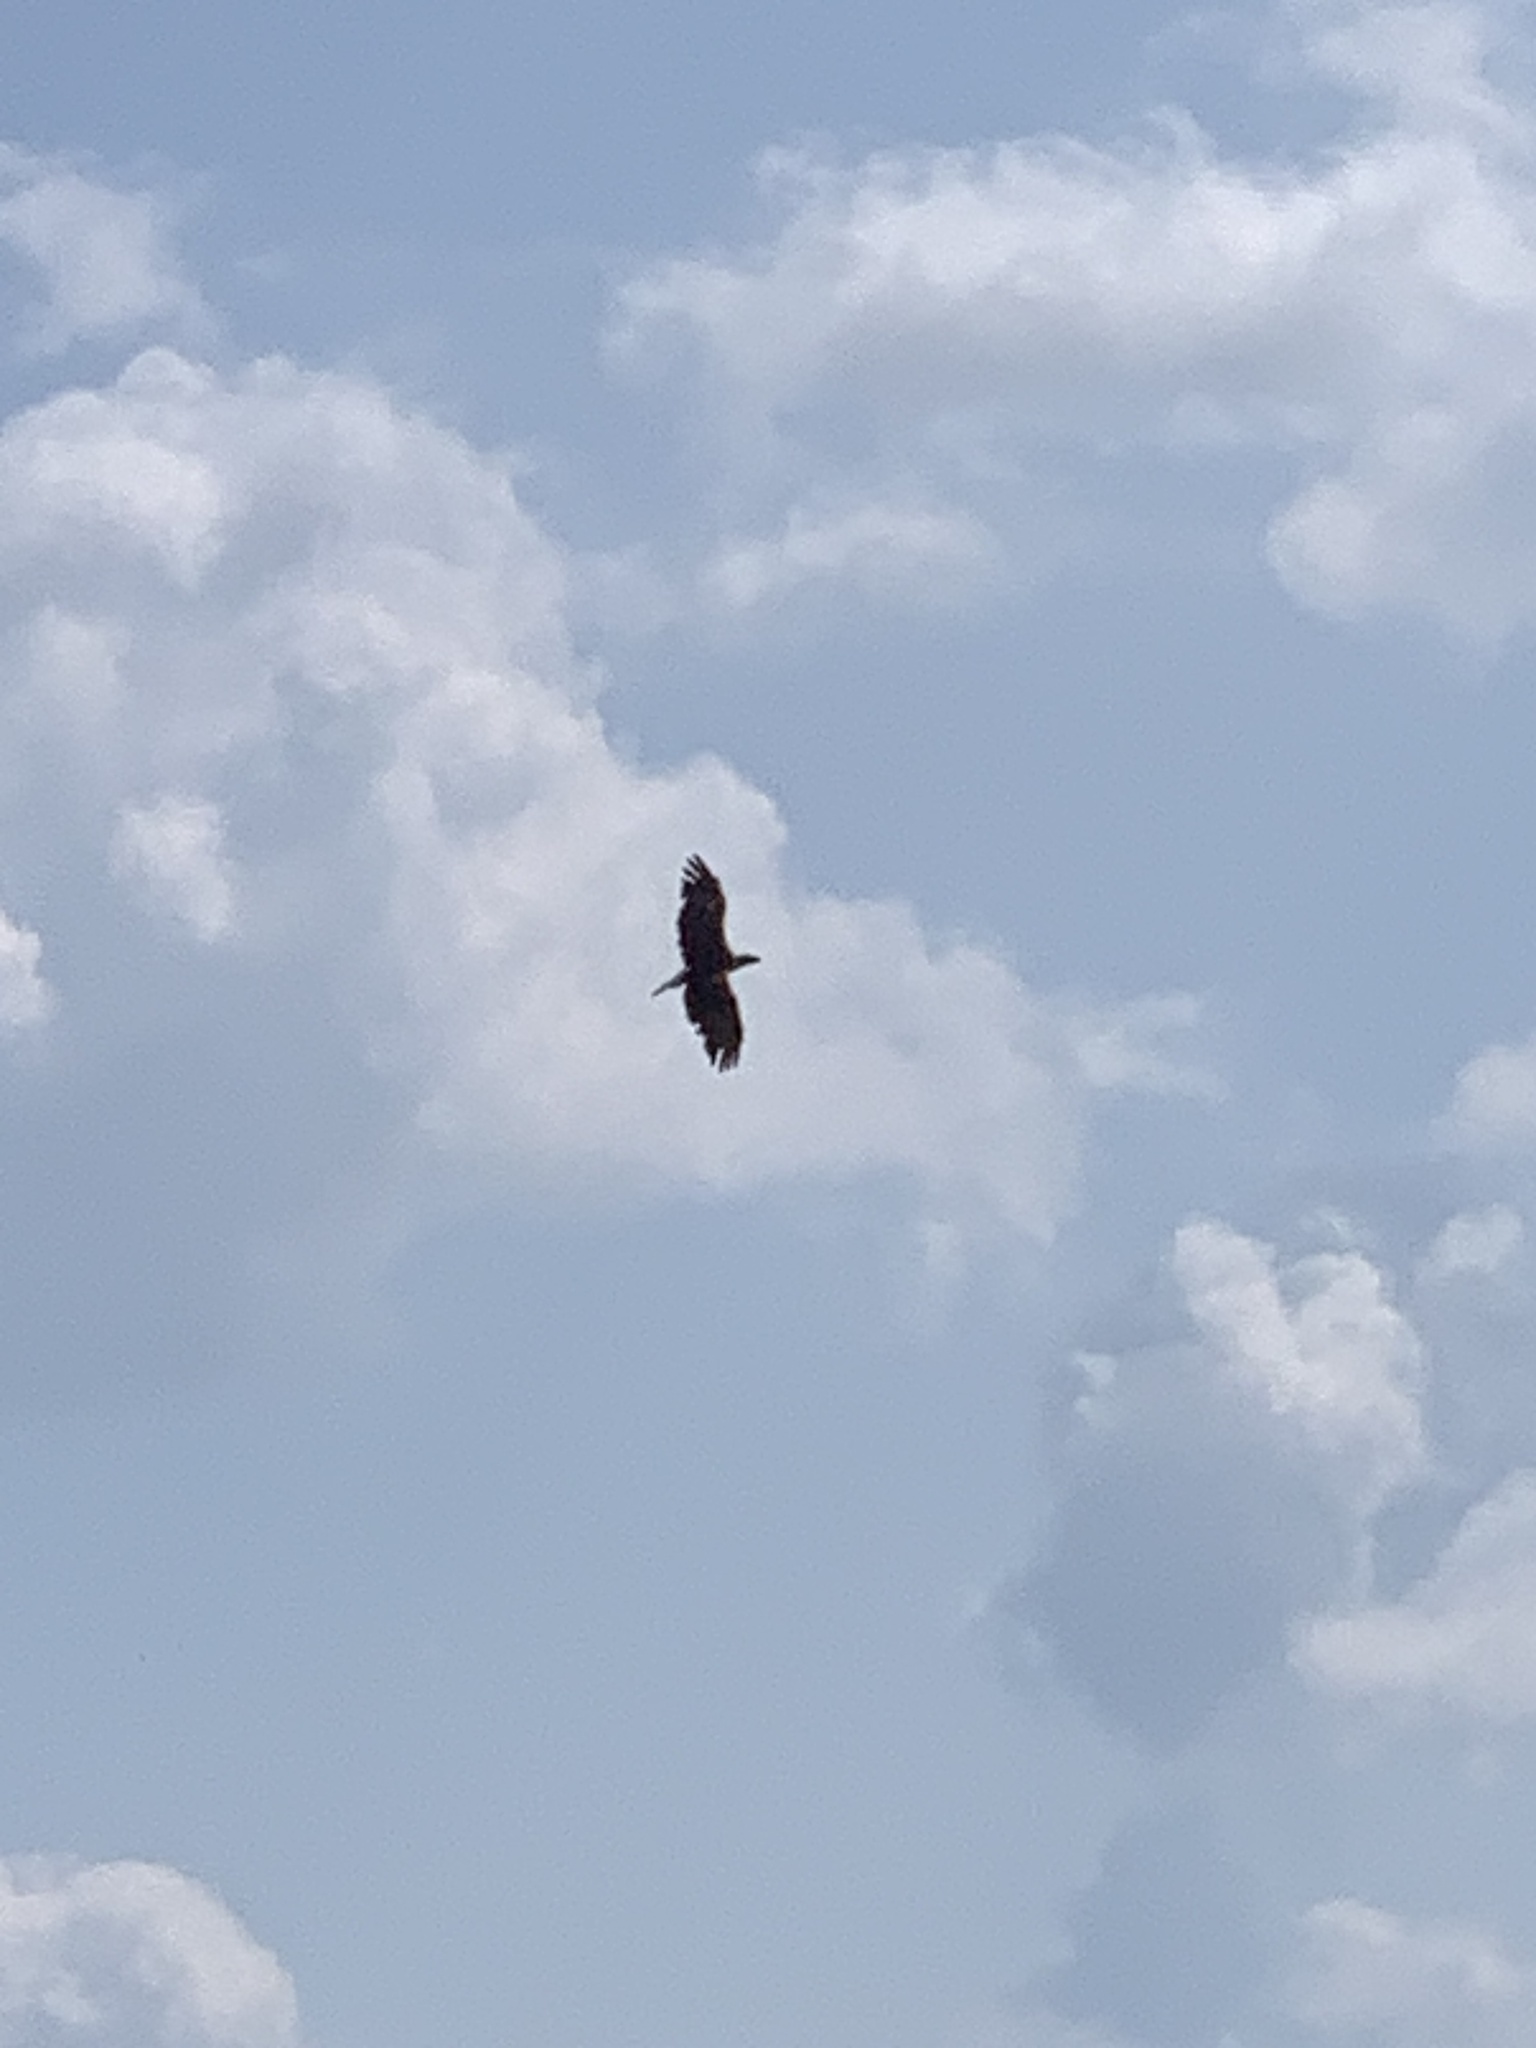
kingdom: Animalia
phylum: Chordata
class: Aves
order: Accipitriformes
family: Accipitridae
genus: Haliaeetus
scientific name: Haliaeetus leucocephalus
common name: Bald eagle
